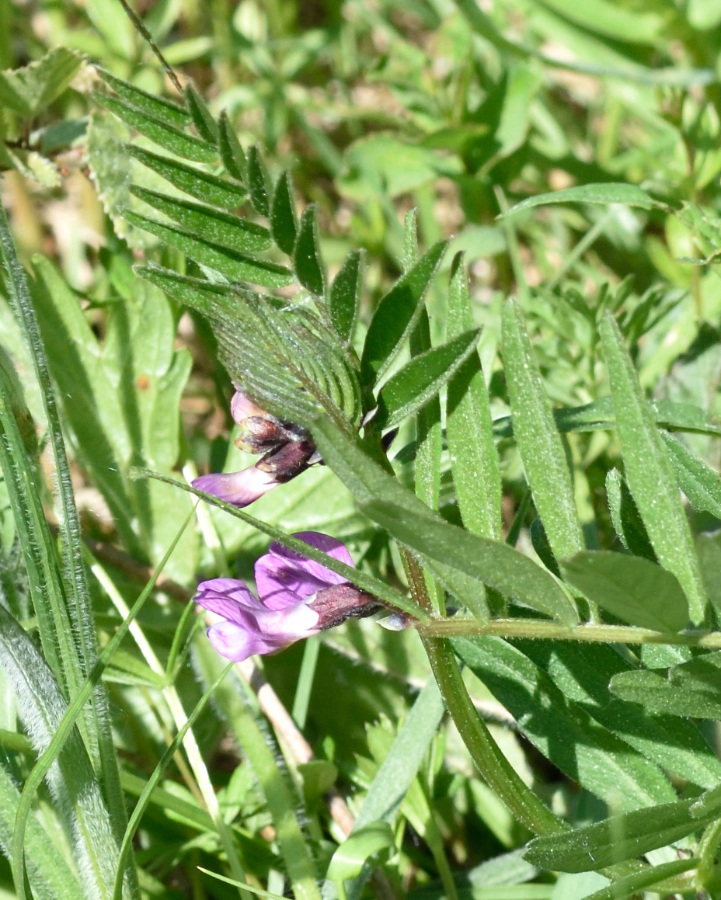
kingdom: Plantae
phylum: Tracheophyta
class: Magnoliopsida
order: Fabales
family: Fabaceae
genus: Vicia
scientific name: Vicia sepium
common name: Bush vetch
